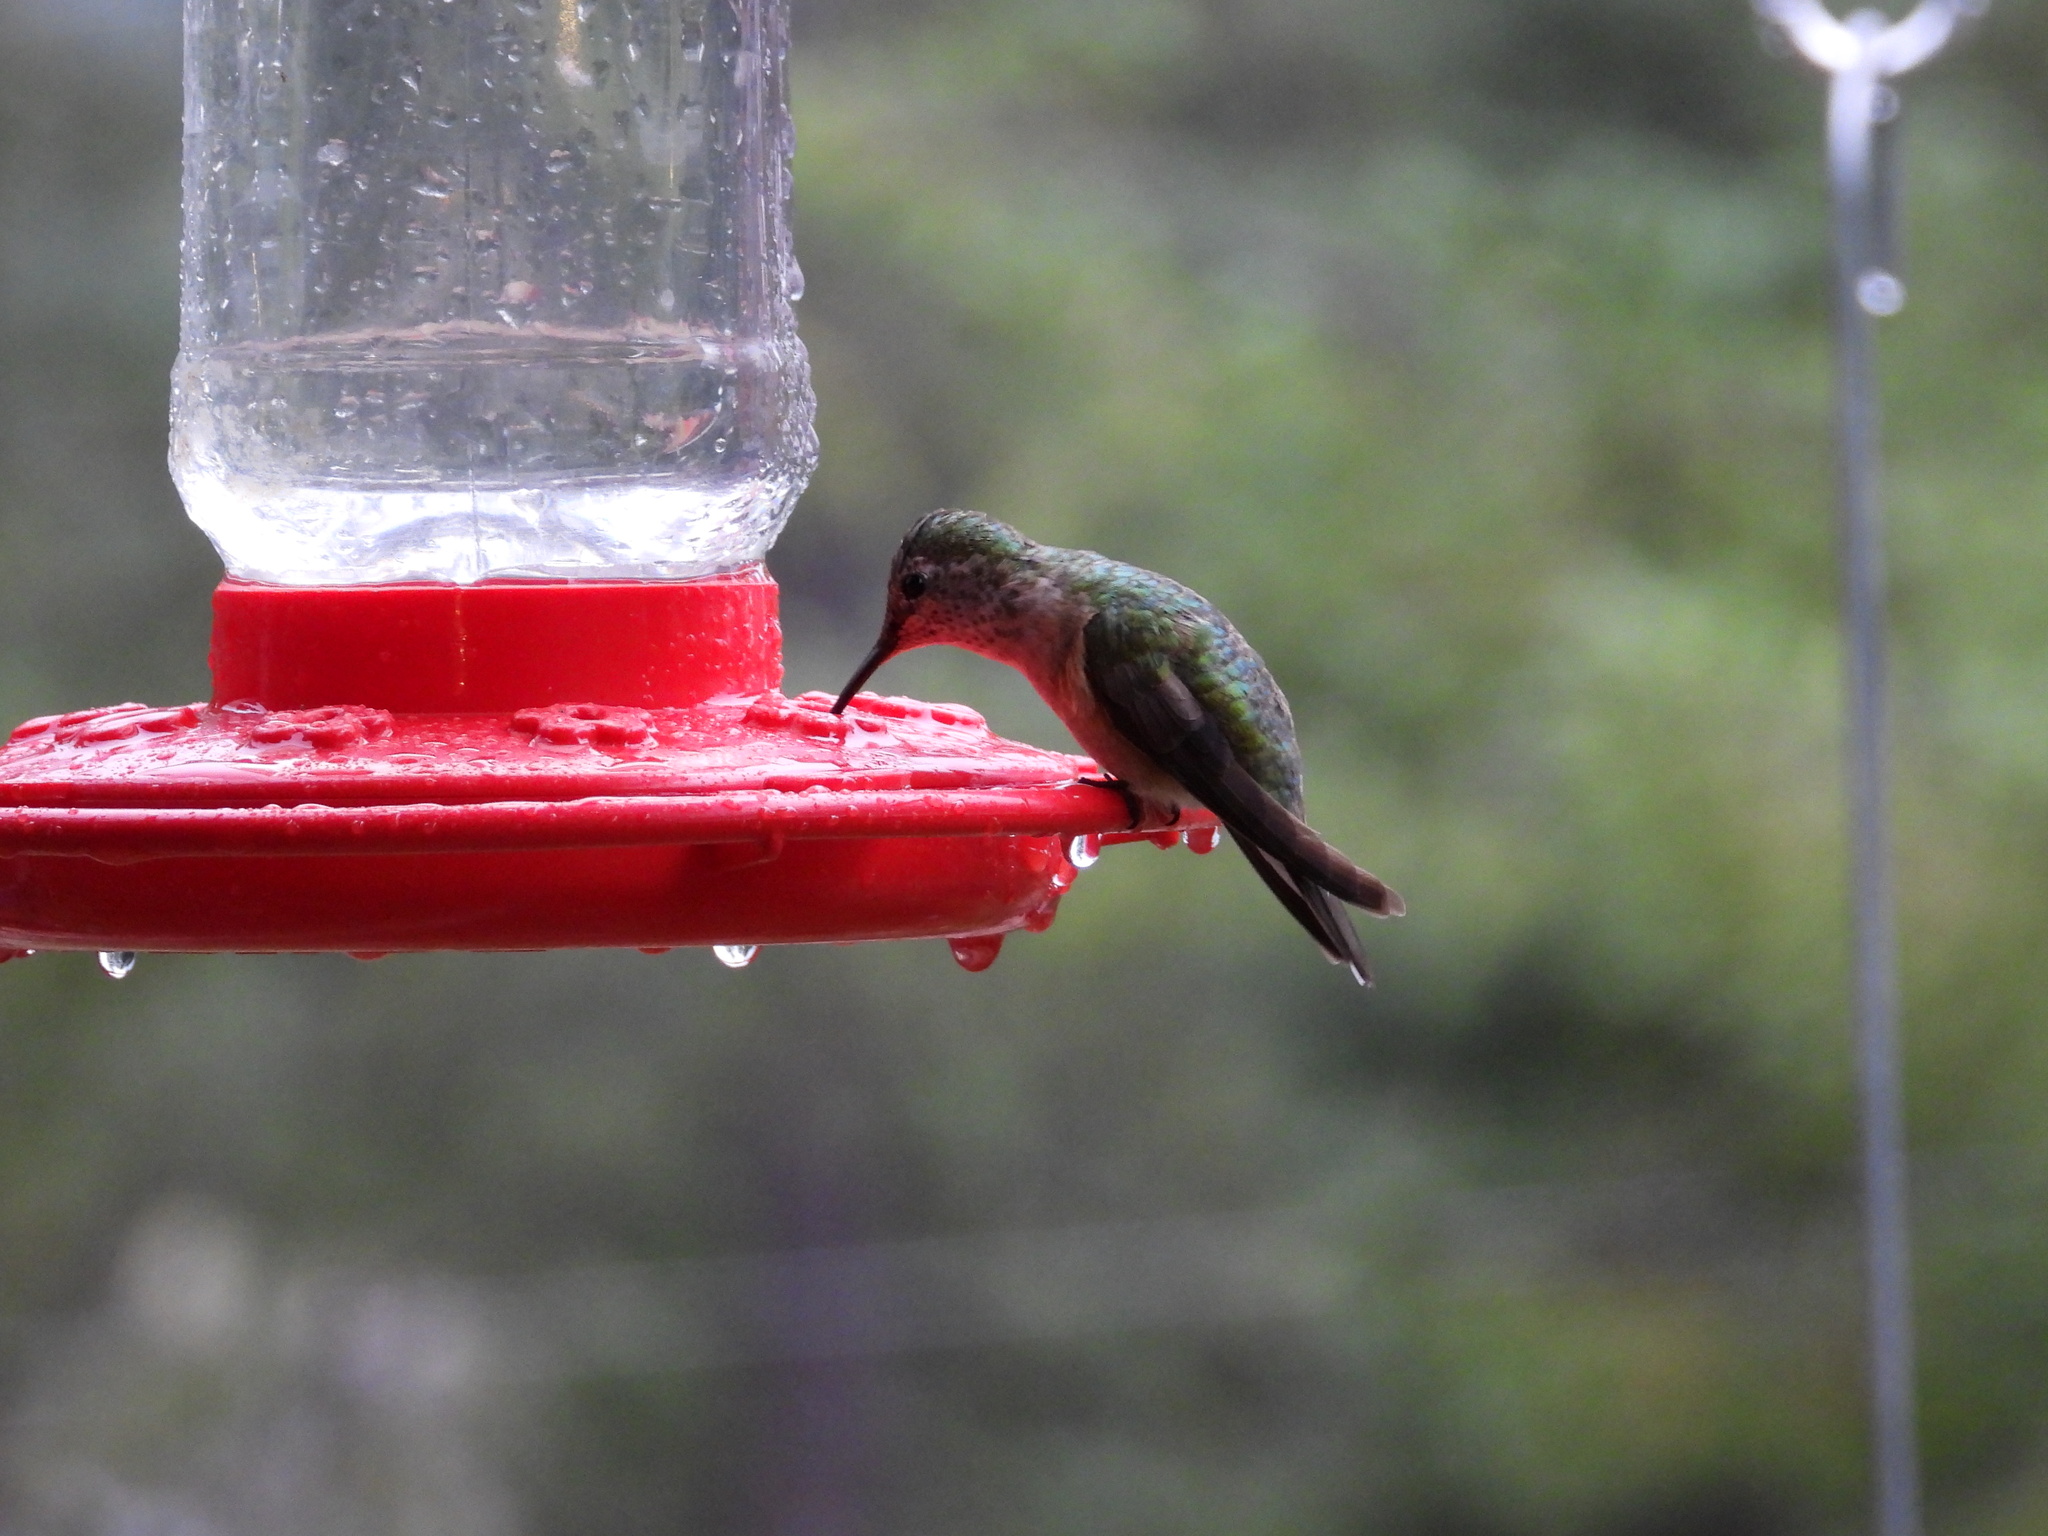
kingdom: Animalia
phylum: Chordata
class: Aves
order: Apodiformes
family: Trochilidae
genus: Selasphorus
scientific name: Selasphorus platycercus
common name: Broad-tailed hummingbird
